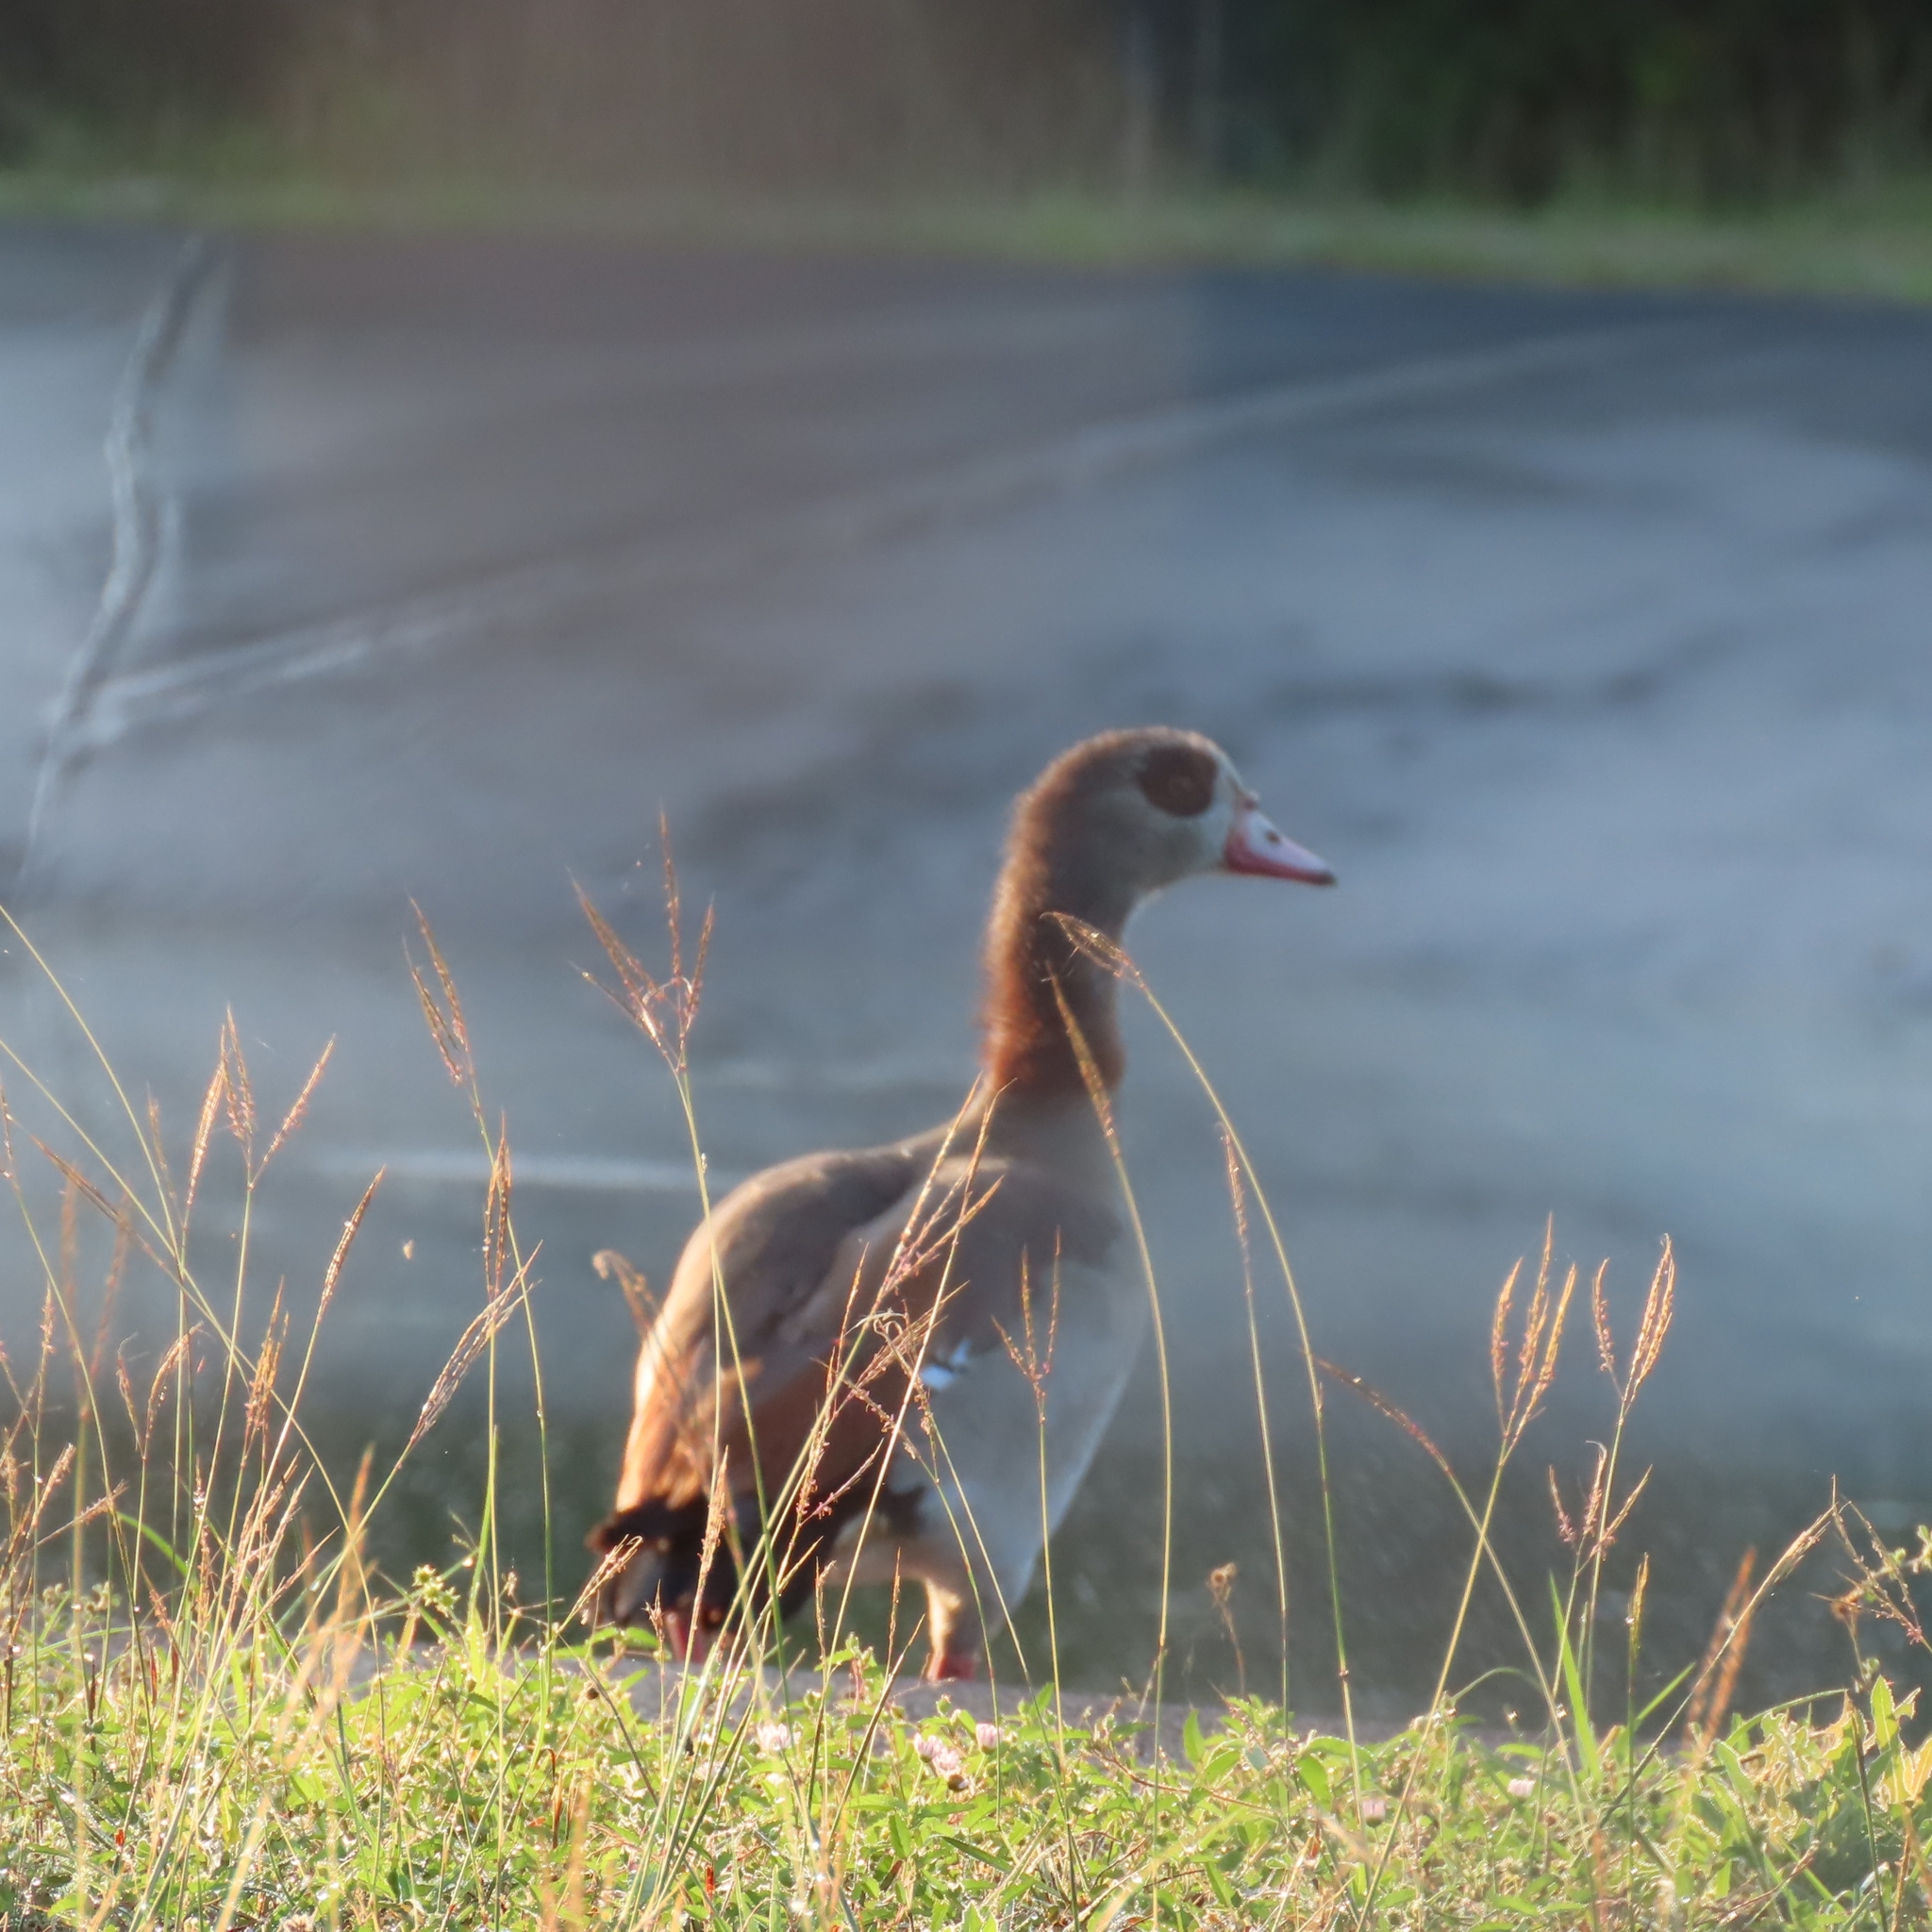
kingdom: Animalia
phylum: Chordata
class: Aves
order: Anseriformes
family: Anatidae
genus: Alopochen
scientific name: Alopochen aegyptiaca
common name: Egyptian goose
